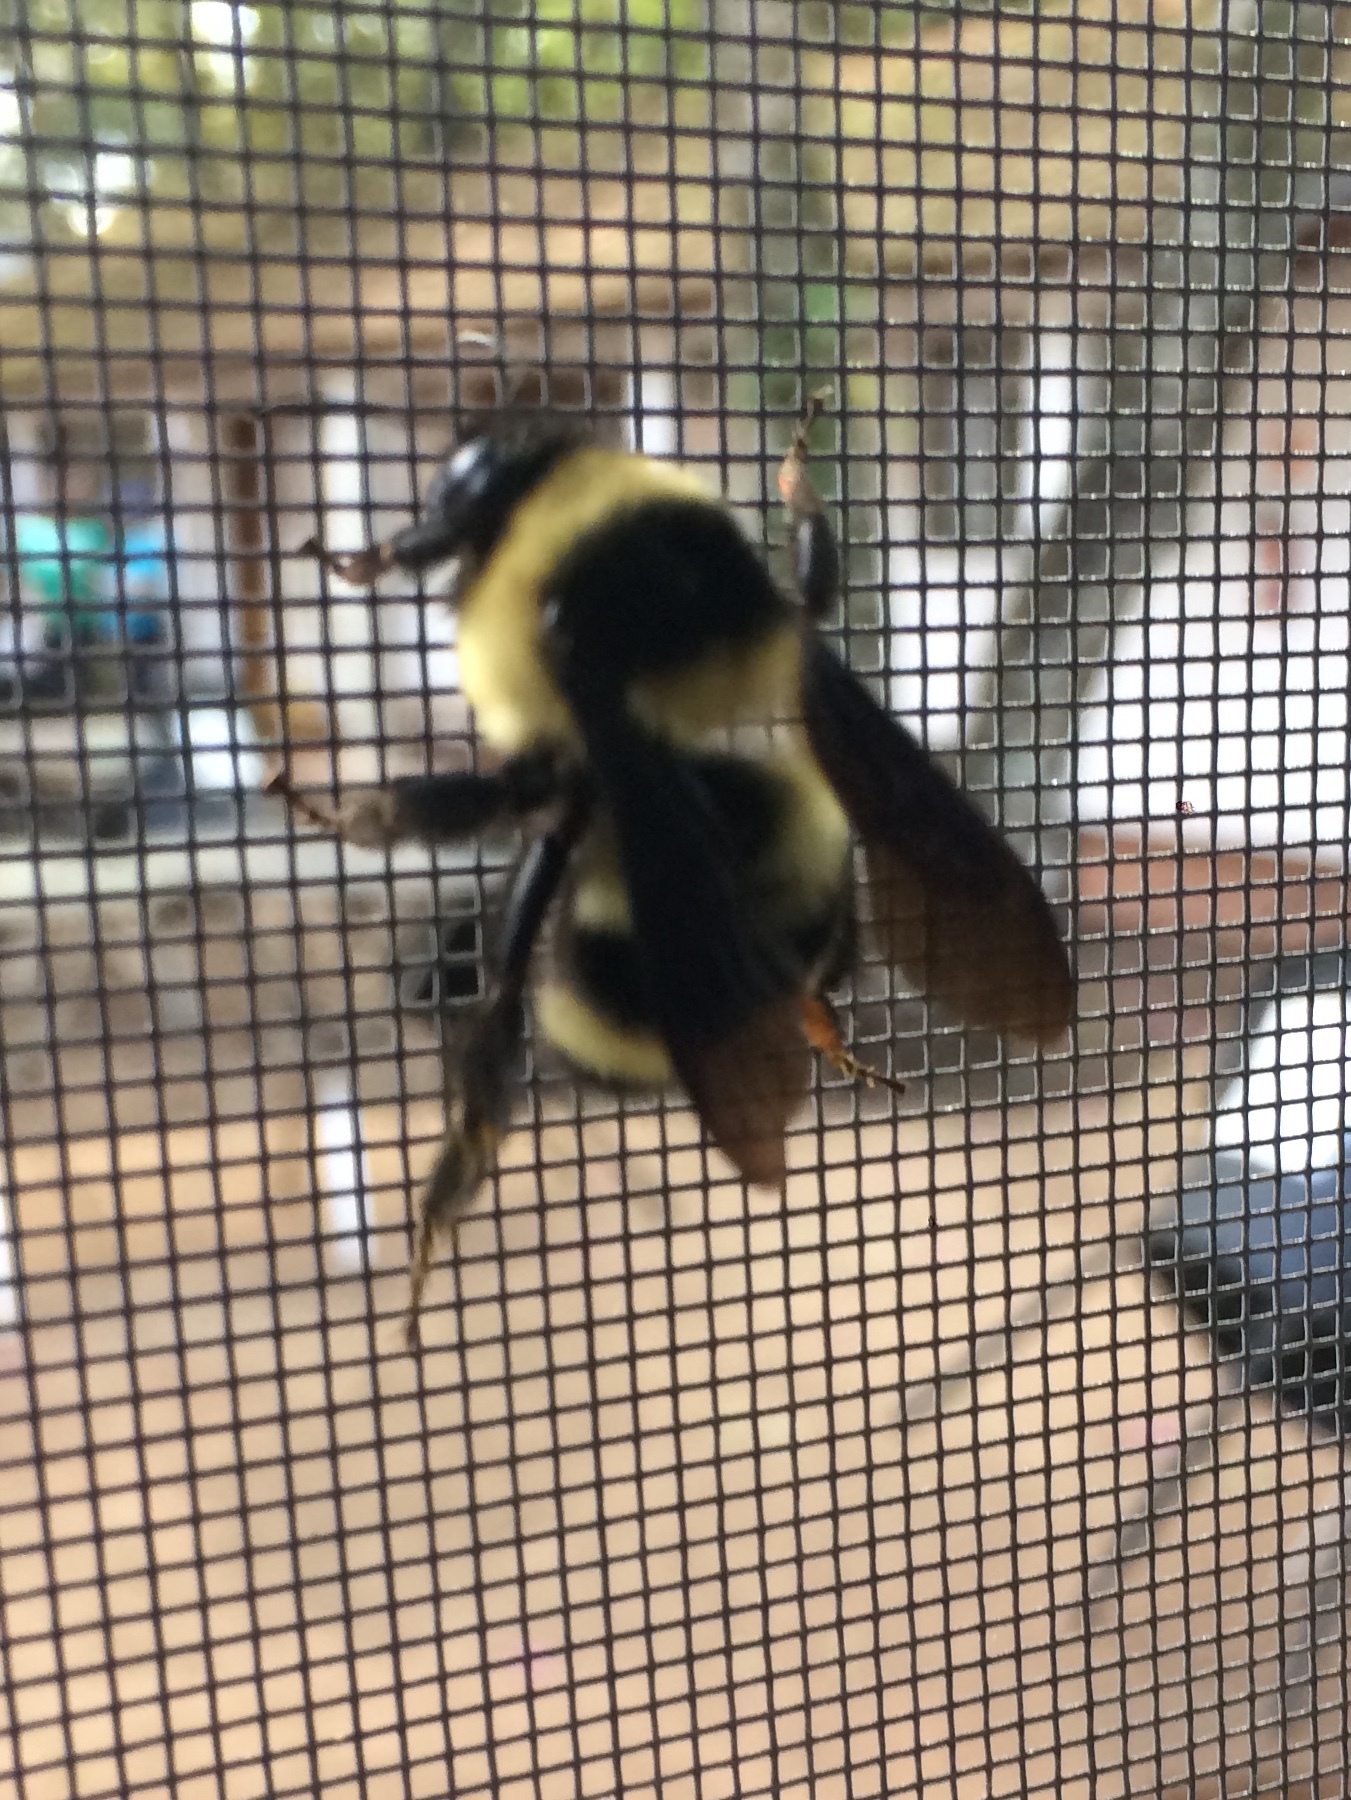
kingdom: Animalia
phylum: Arthropoda
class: Insecta
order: Hymenoptera
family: Apidae
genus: Bombus
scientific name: Bombus brasiliensis
